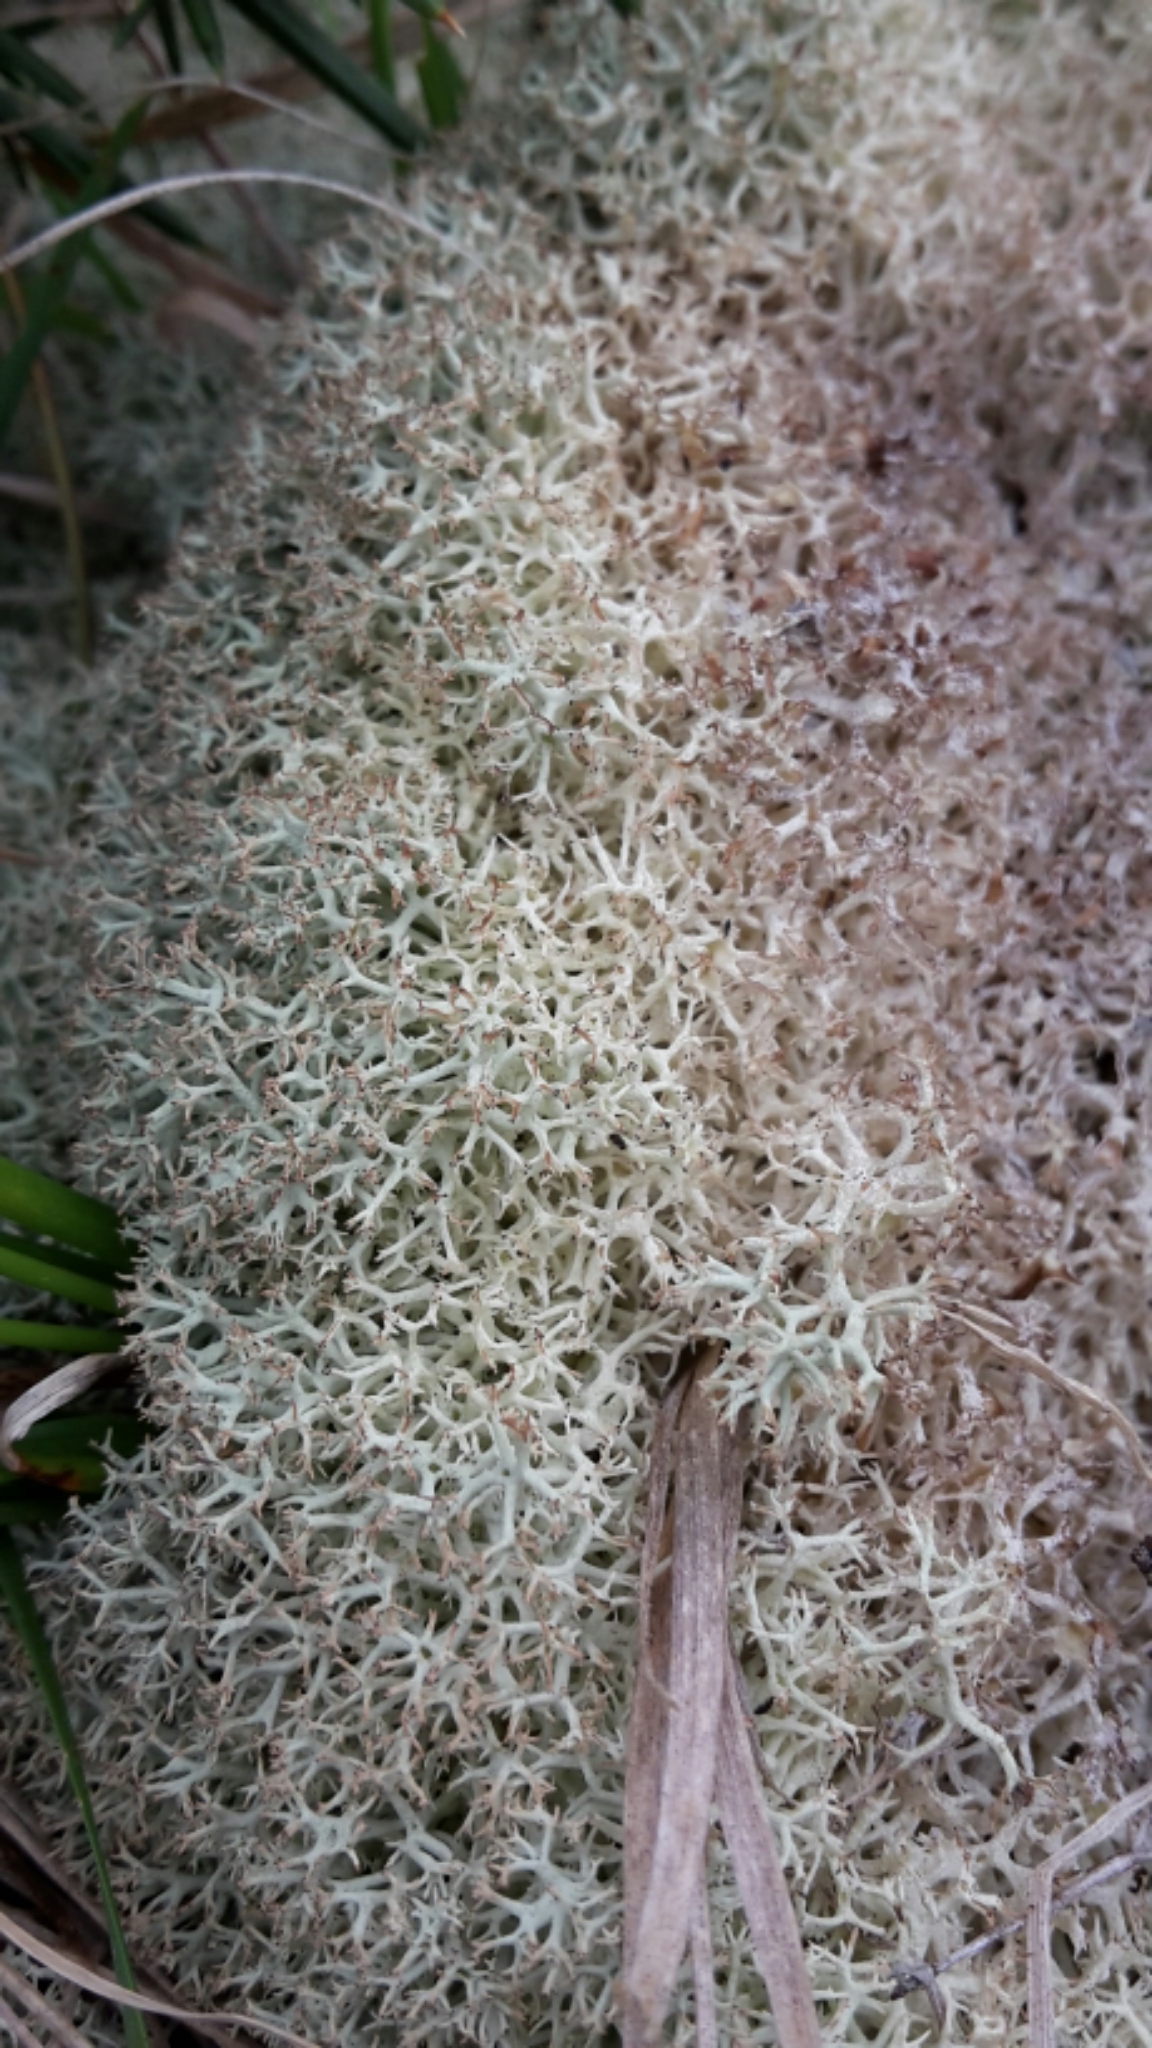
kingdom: Fungi
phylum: Ascomycota
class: Lecanoromycetes
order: Lecanorales
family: Cladoniaceae
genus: Cladonia
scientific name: Cladonia confusa
